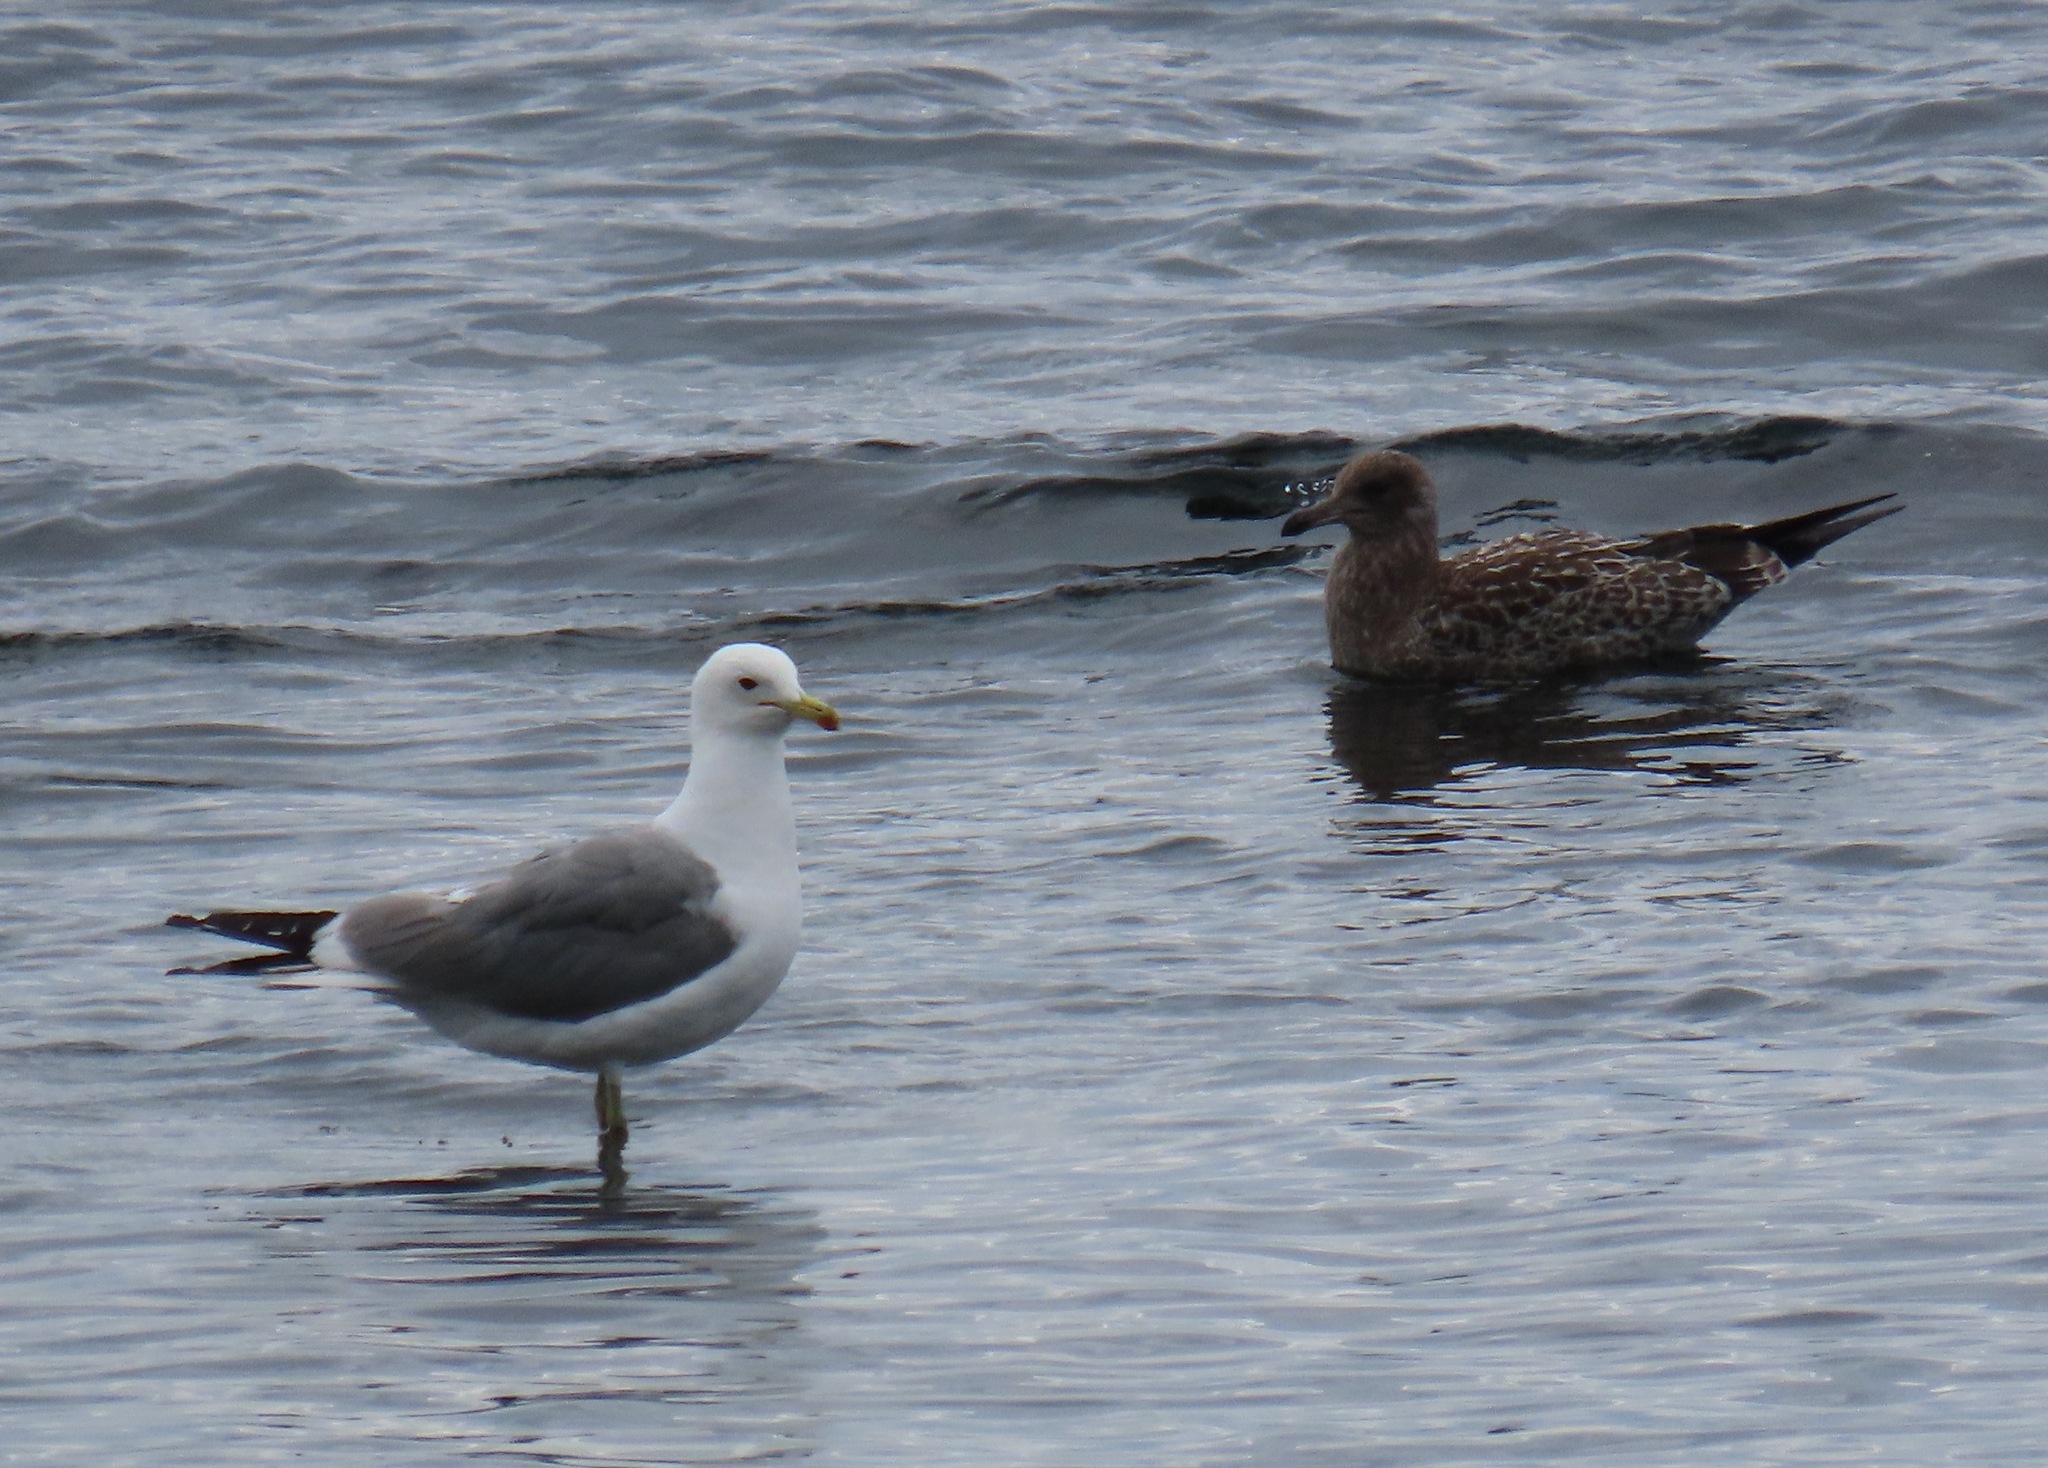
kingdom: Animalia
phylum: Chordata
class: Aves
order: Charadriiformes
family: Laridae
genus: Larus
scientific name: Larus californicus
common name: California gull
